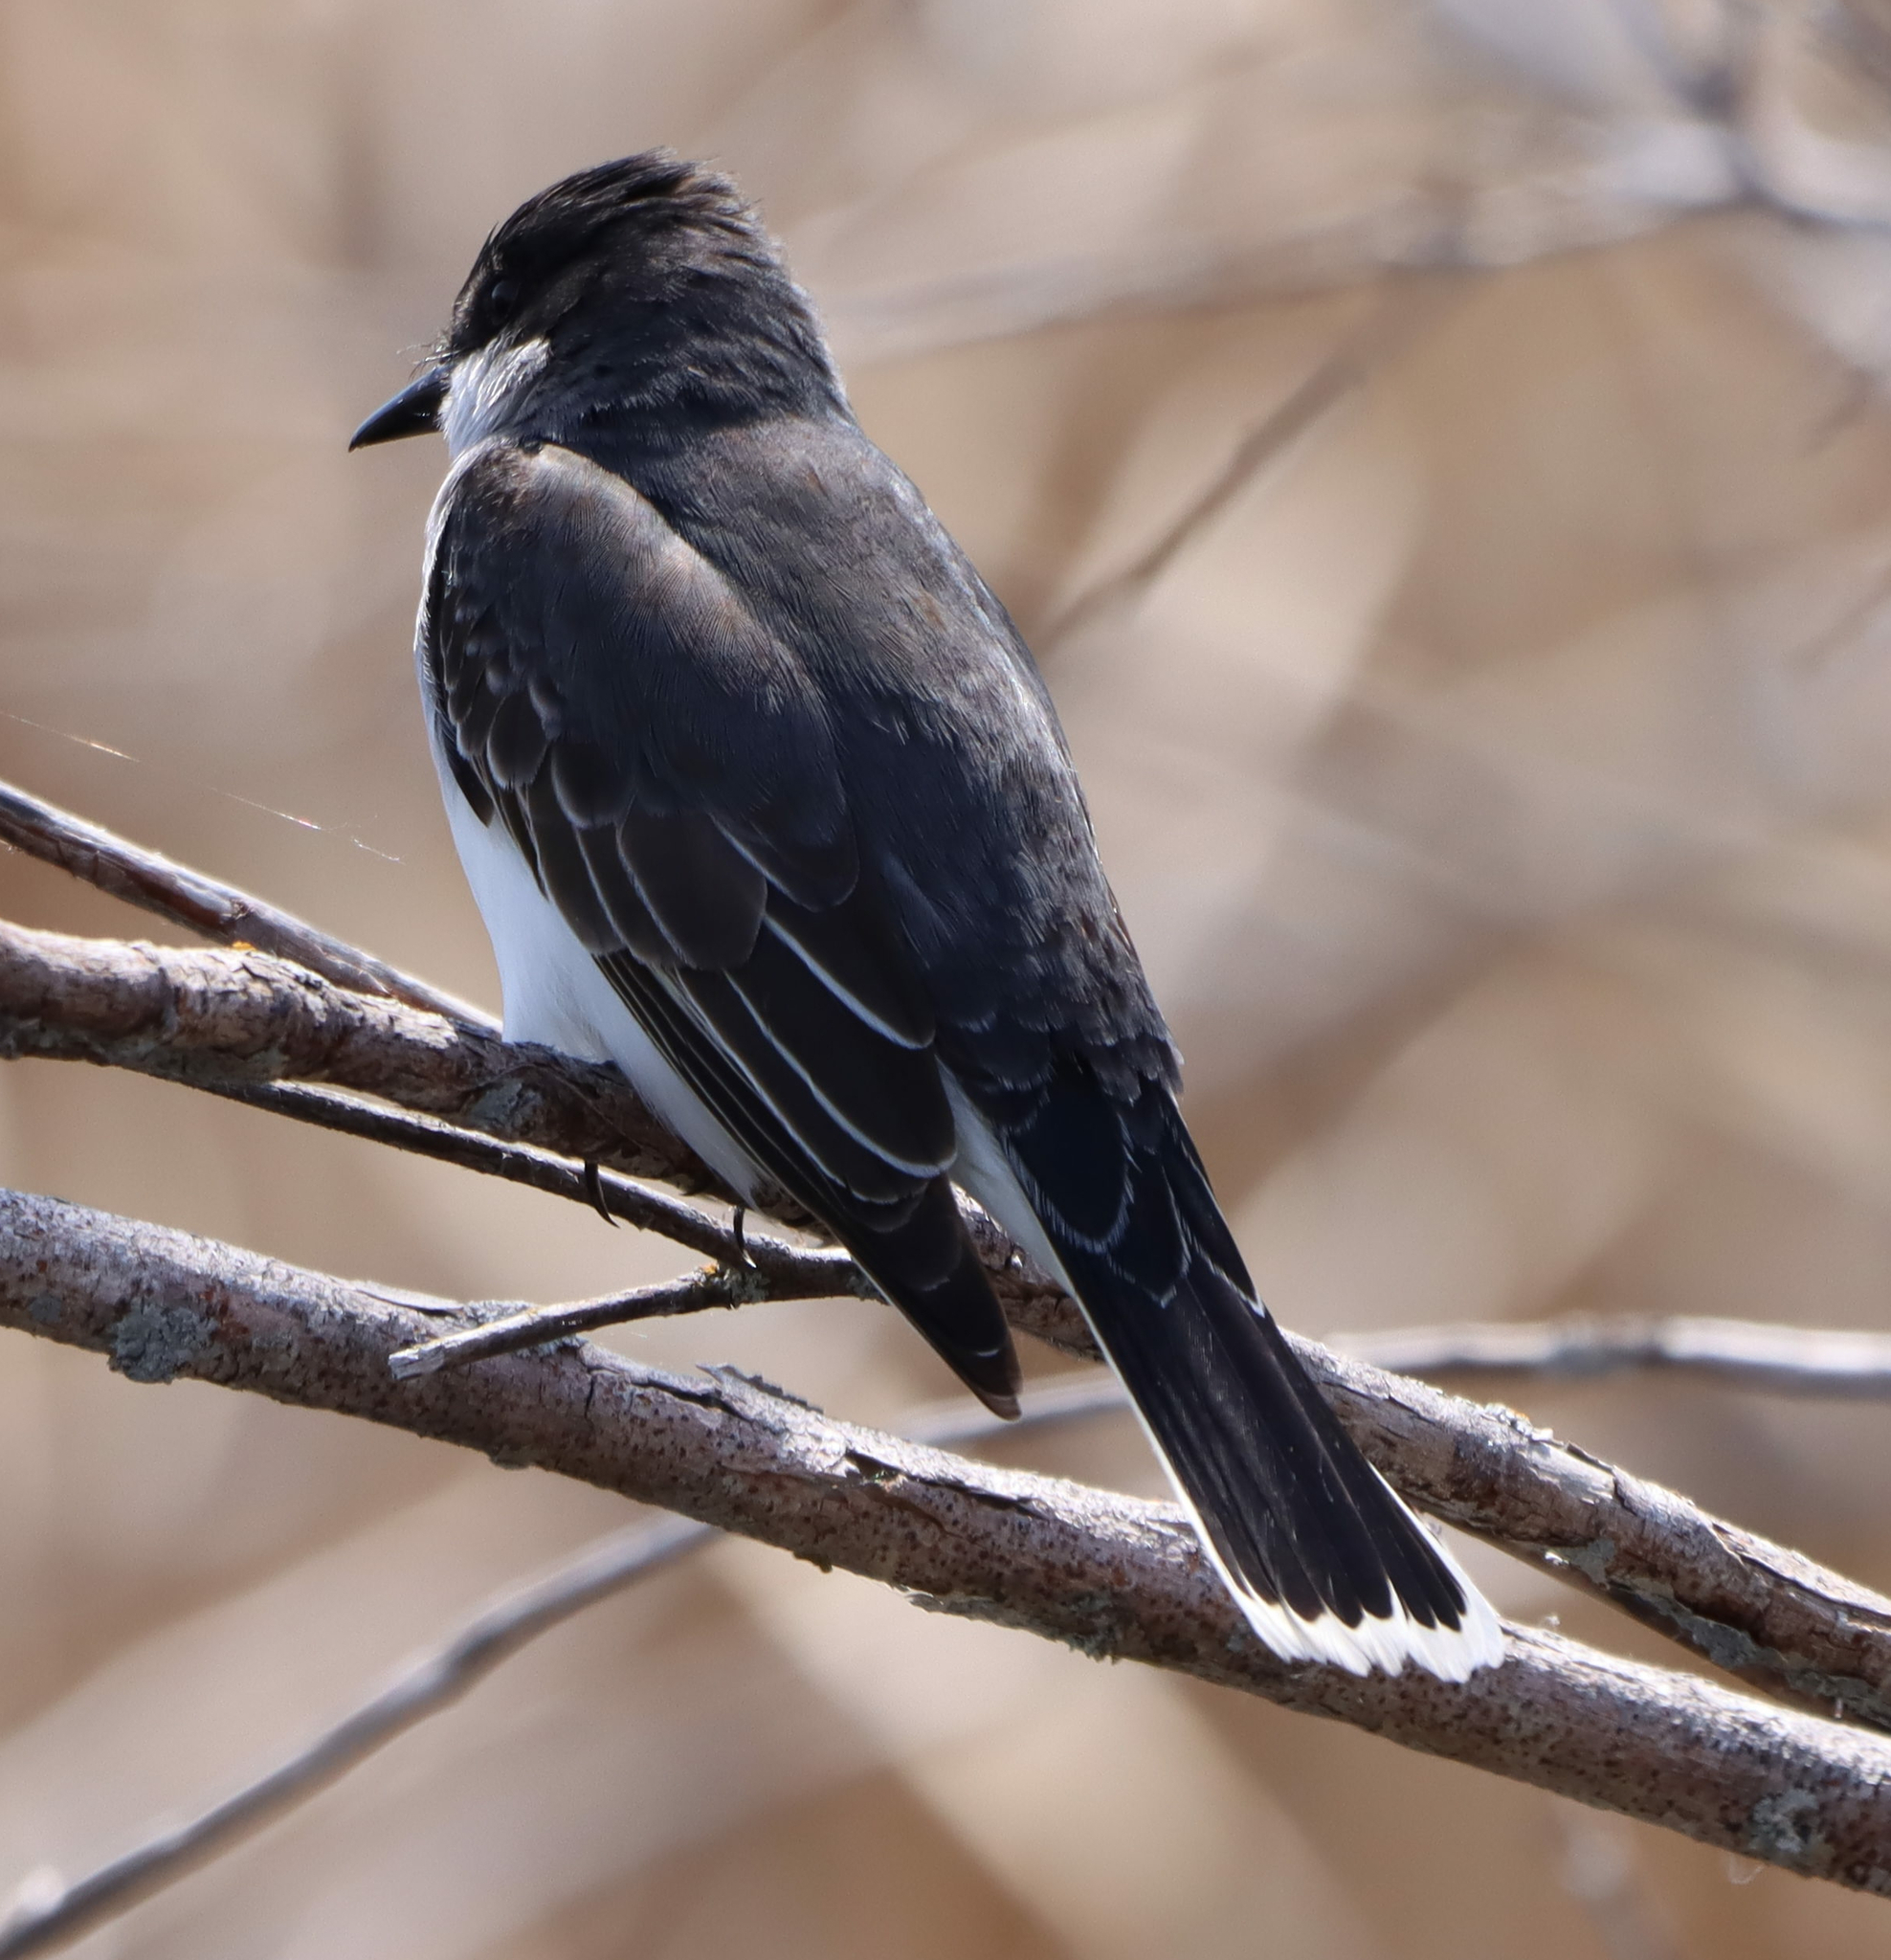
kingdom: Animalia
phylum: Chordata
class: Aves
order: Passeriformes
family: Tyrannidae
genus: Tyrannus
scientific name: Tyrannus tyrannus
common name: Eastern kingbird
